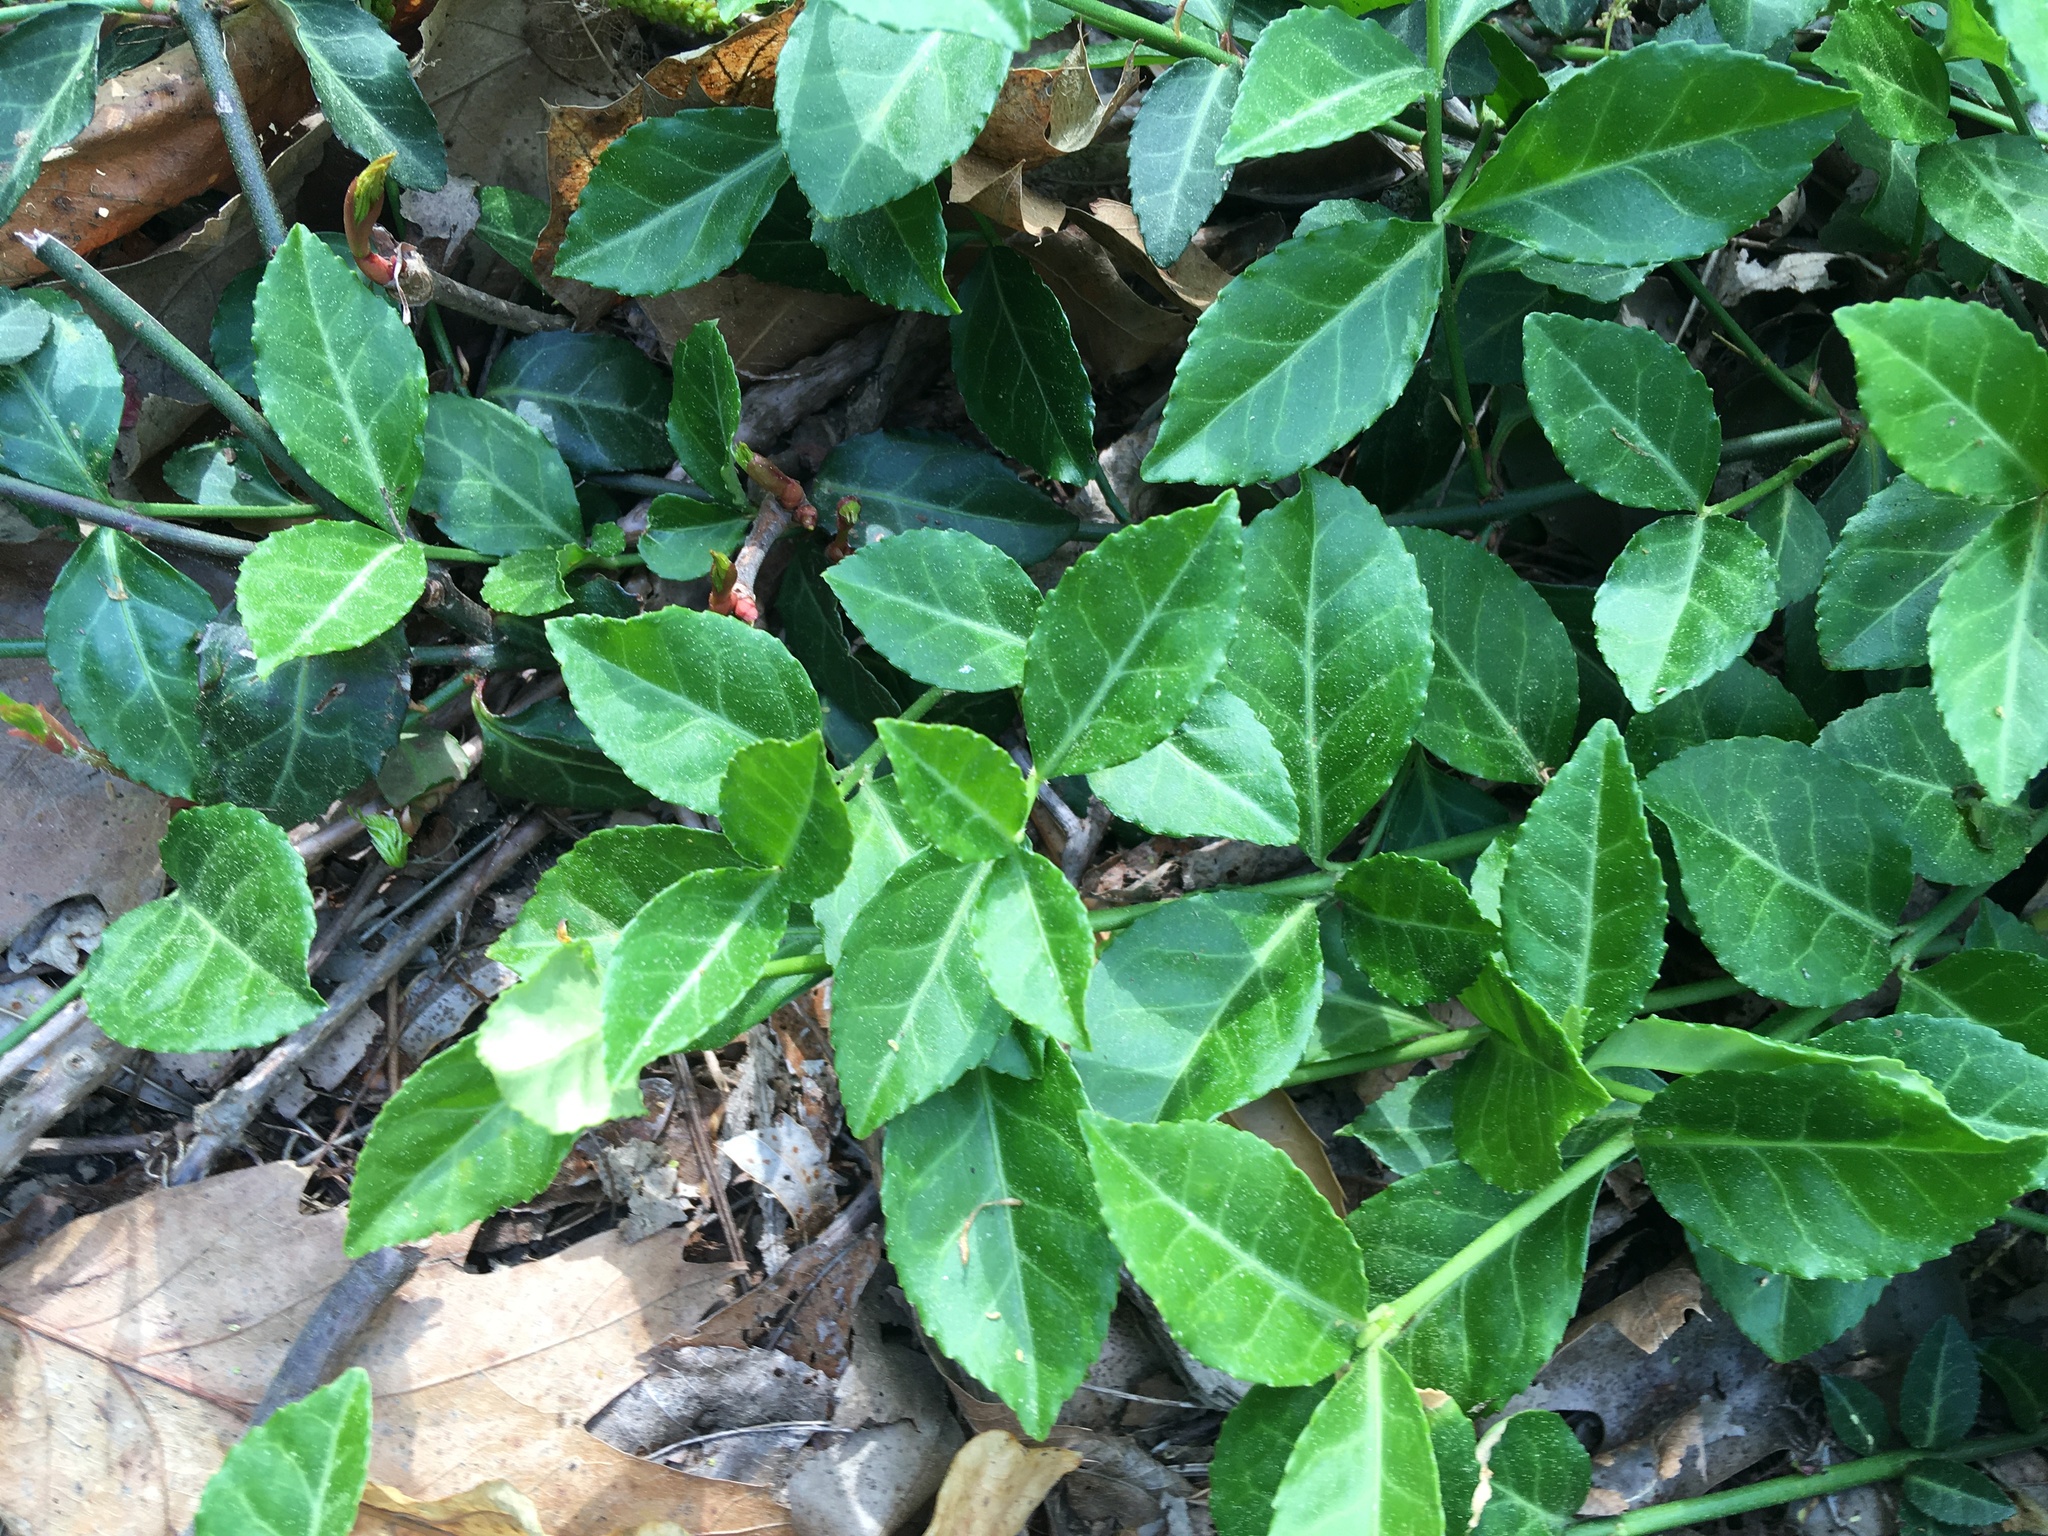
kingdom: Plantae
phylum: Tracheophyta
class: Magnoliopsida
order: Celastrales
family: Celastraceae
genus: Euonymus
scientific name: Euonymus fortunei
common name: Climbing euonymus
